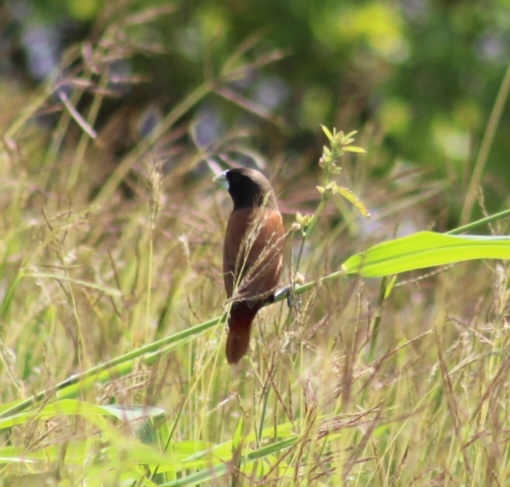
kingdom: Animalia
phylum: Chordata
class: Aves
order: Passeriformes
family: Estrildidae
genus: Lonchura
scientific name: Lonchura atricapilla
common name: Chestnut munia
